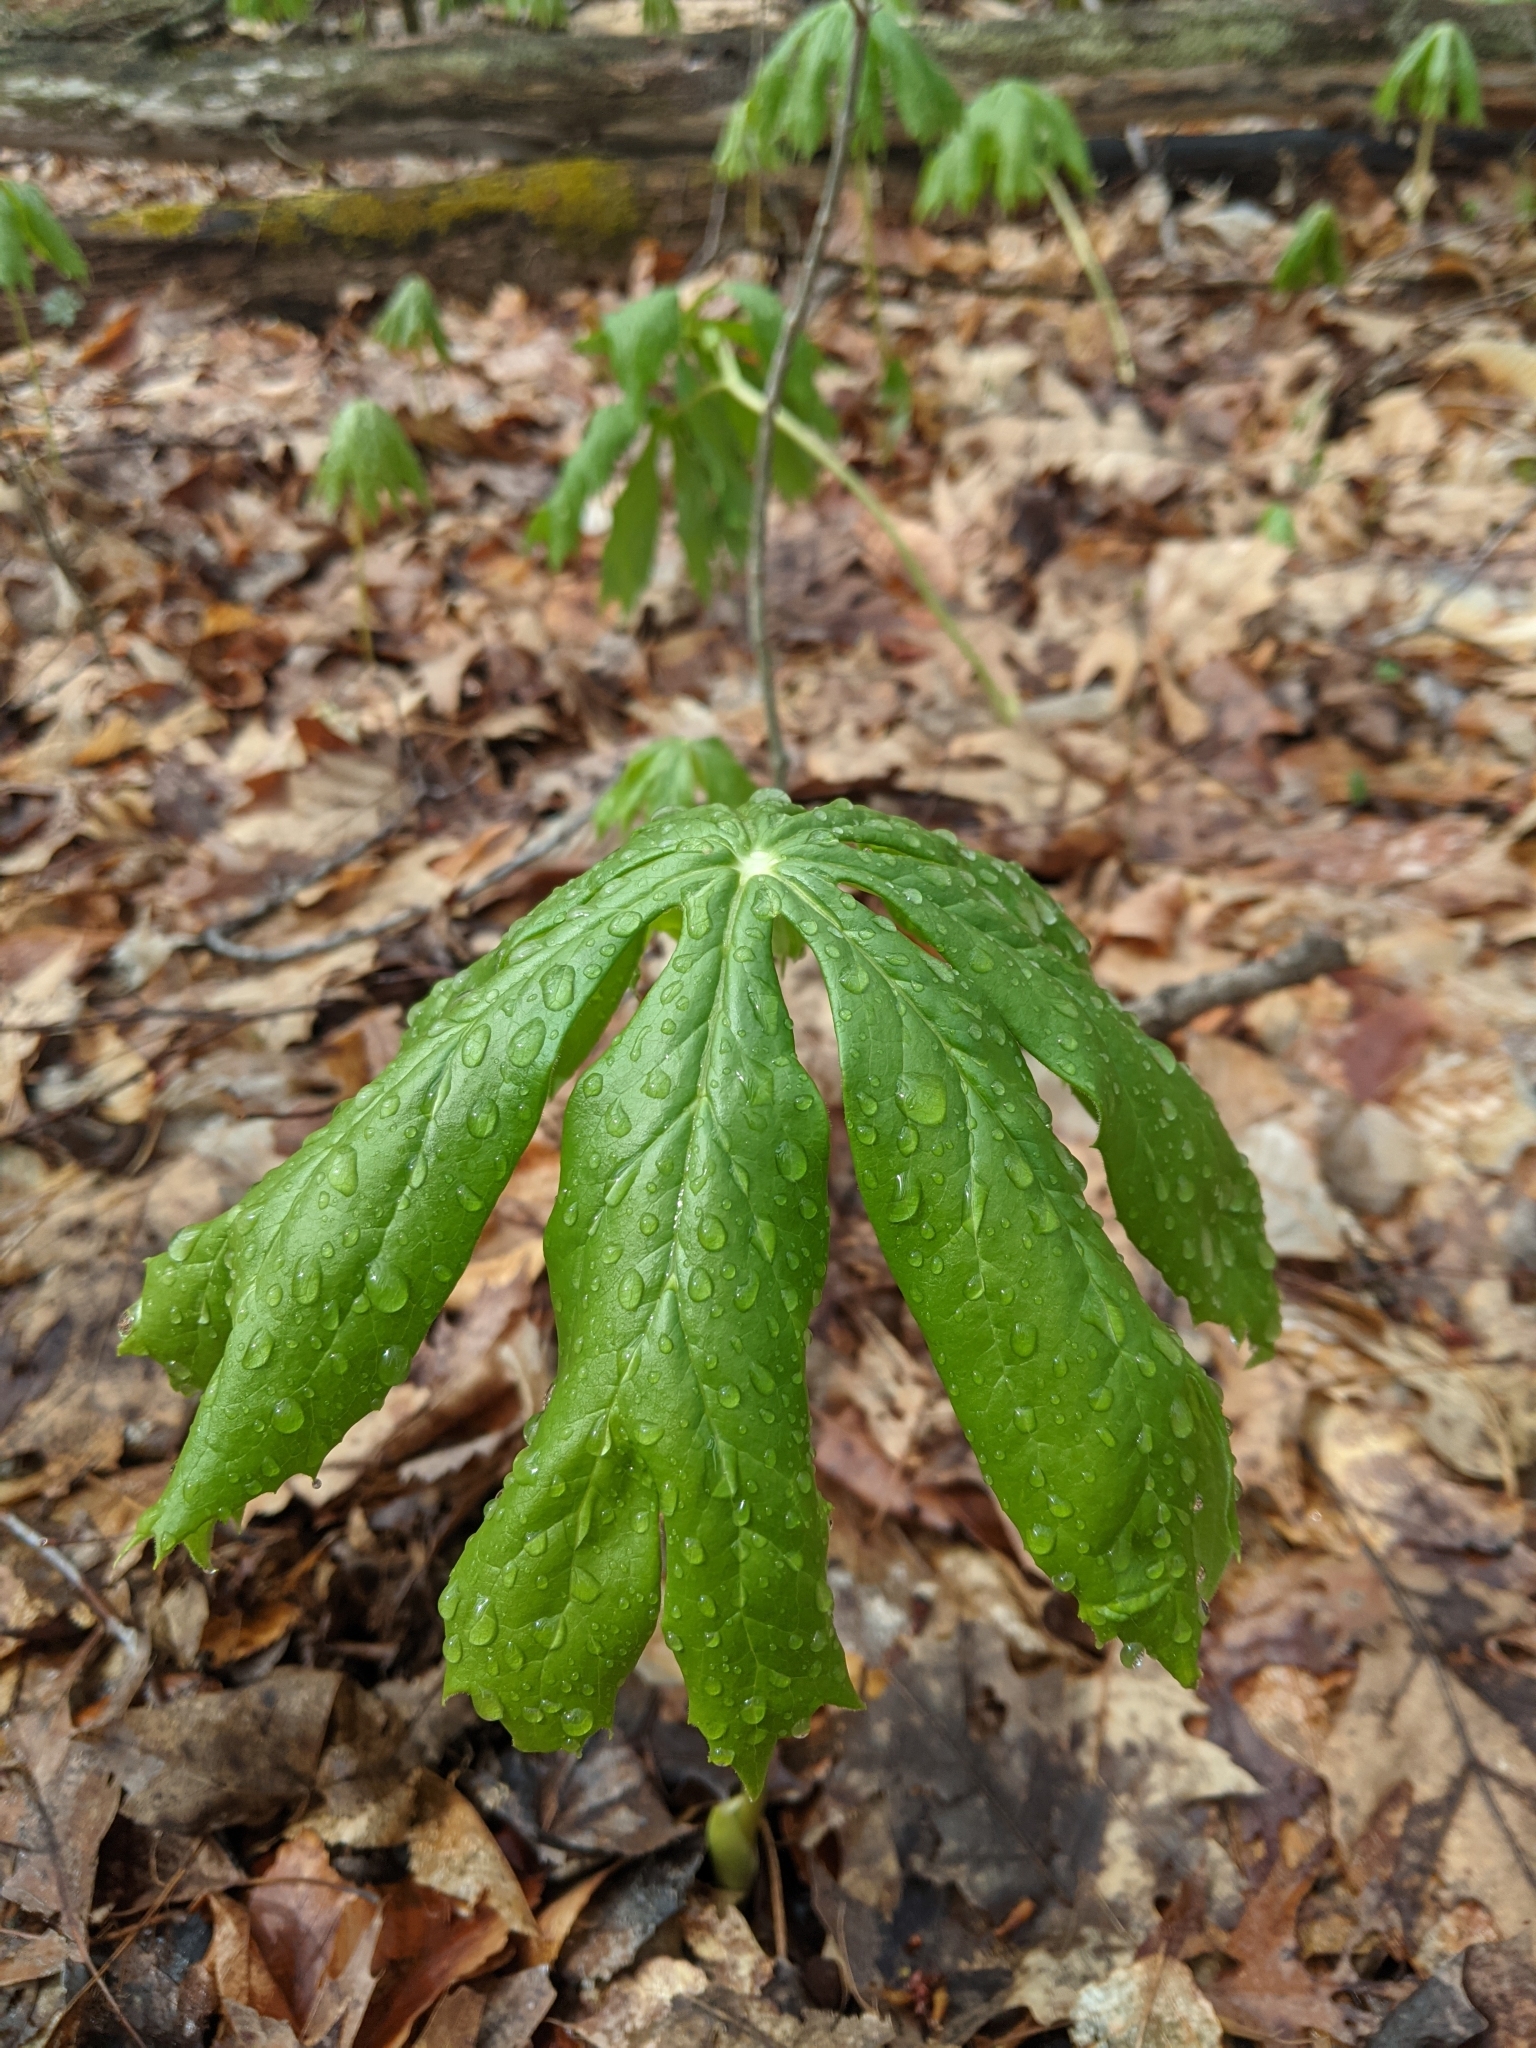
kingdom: Plantae
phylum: Tracheophyta
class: Magnoliopsida
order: Ranunculales
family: Berberidaceae
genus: Podophyllum
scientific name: Podophyllum peltatum
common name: Wild mandrake
